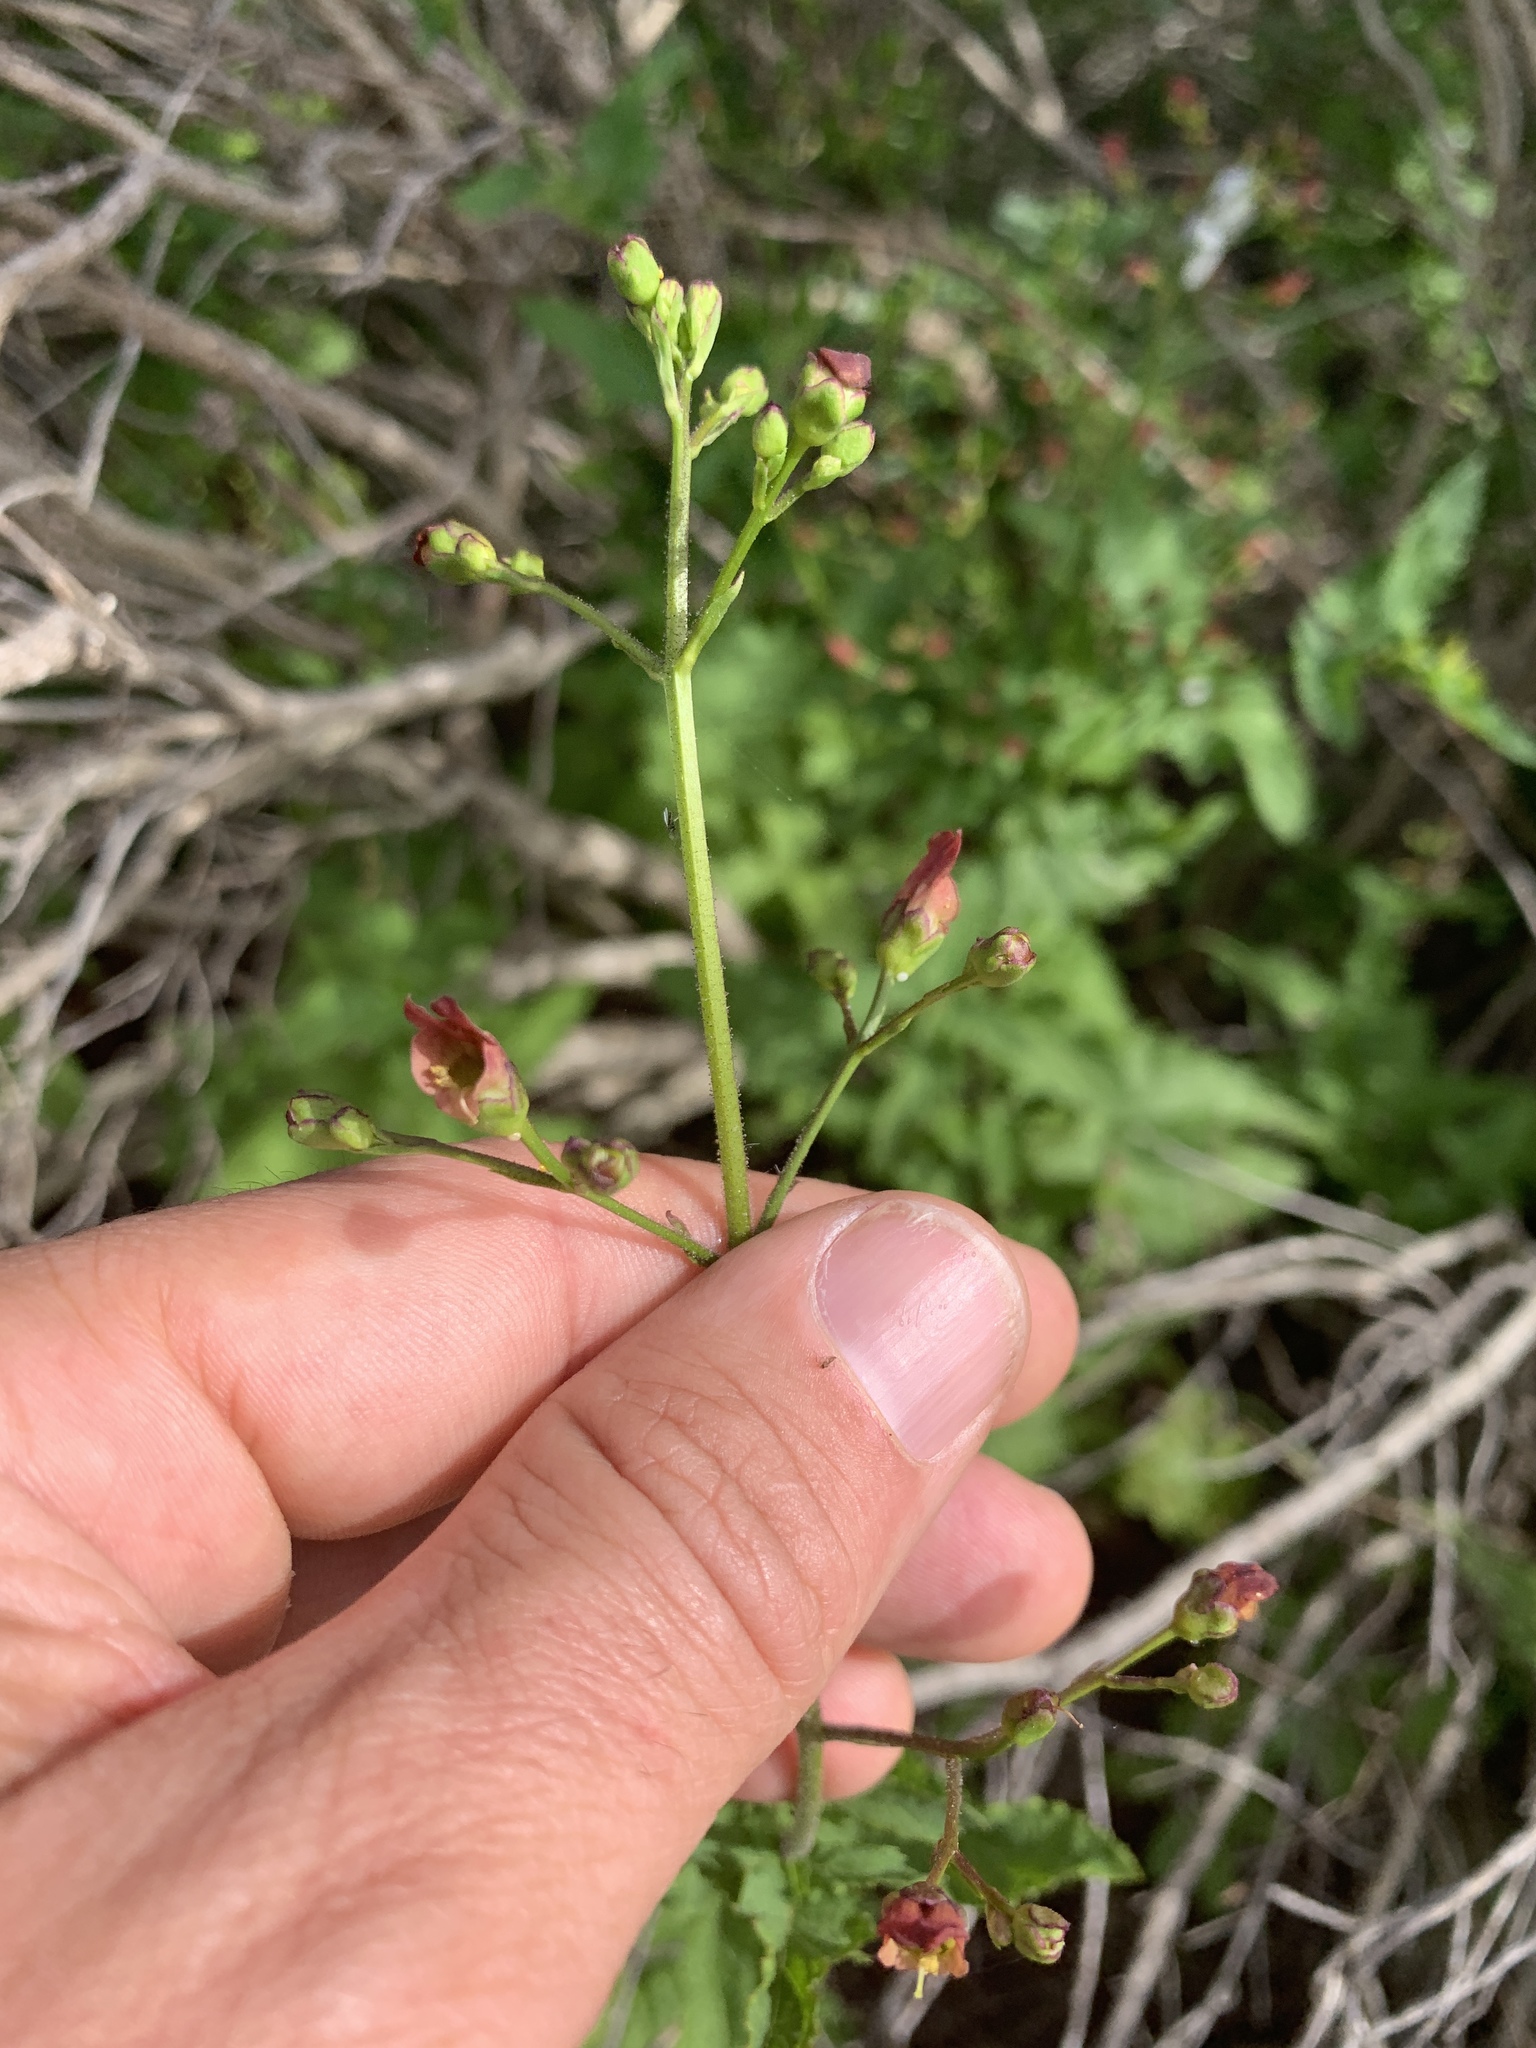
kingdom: Plantae
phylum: Tracheophyta
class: Magnoliopsida
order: Lamiales
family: Scrophulariaceae
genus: Scrophularia
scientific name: Scrophularia californica
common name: California figwort
